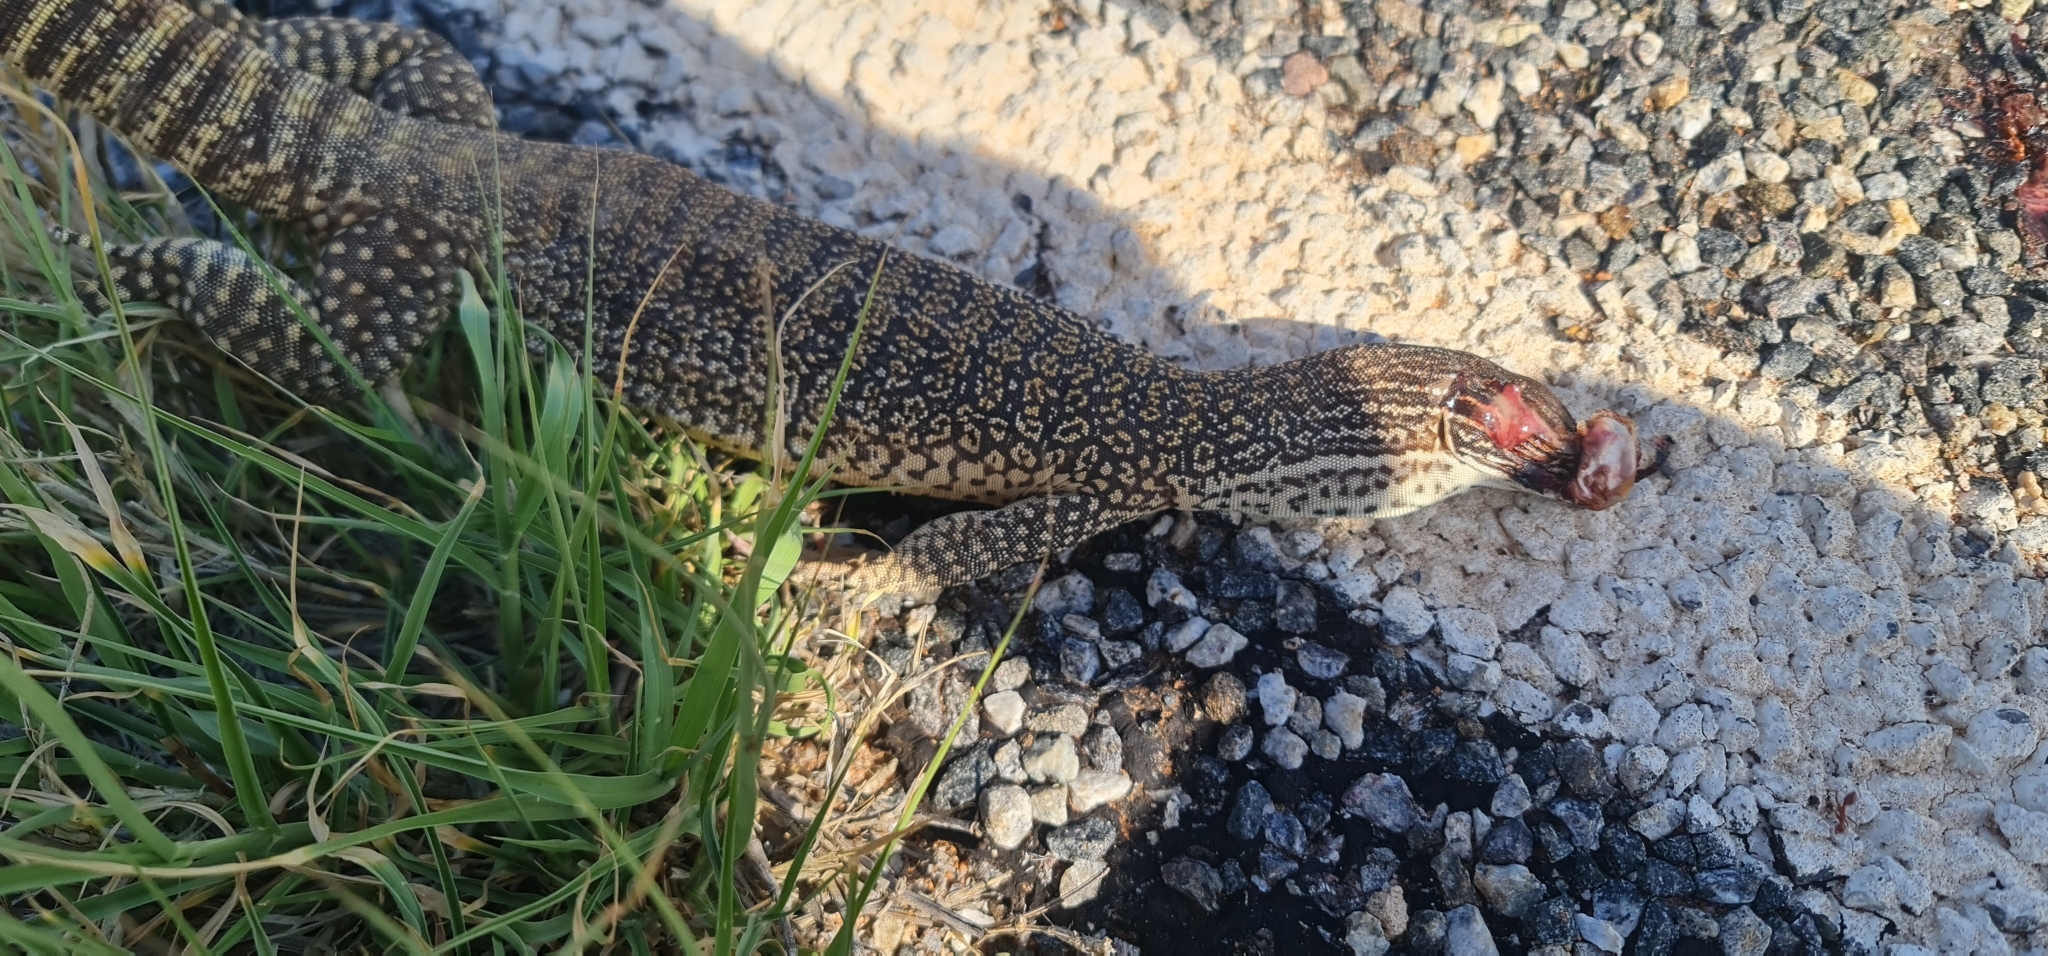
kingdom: Animalia
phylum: Chordata
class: Squamata
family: Varanidae
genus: Varanus
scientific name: Varanus gouldii
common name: Gould's goanna
